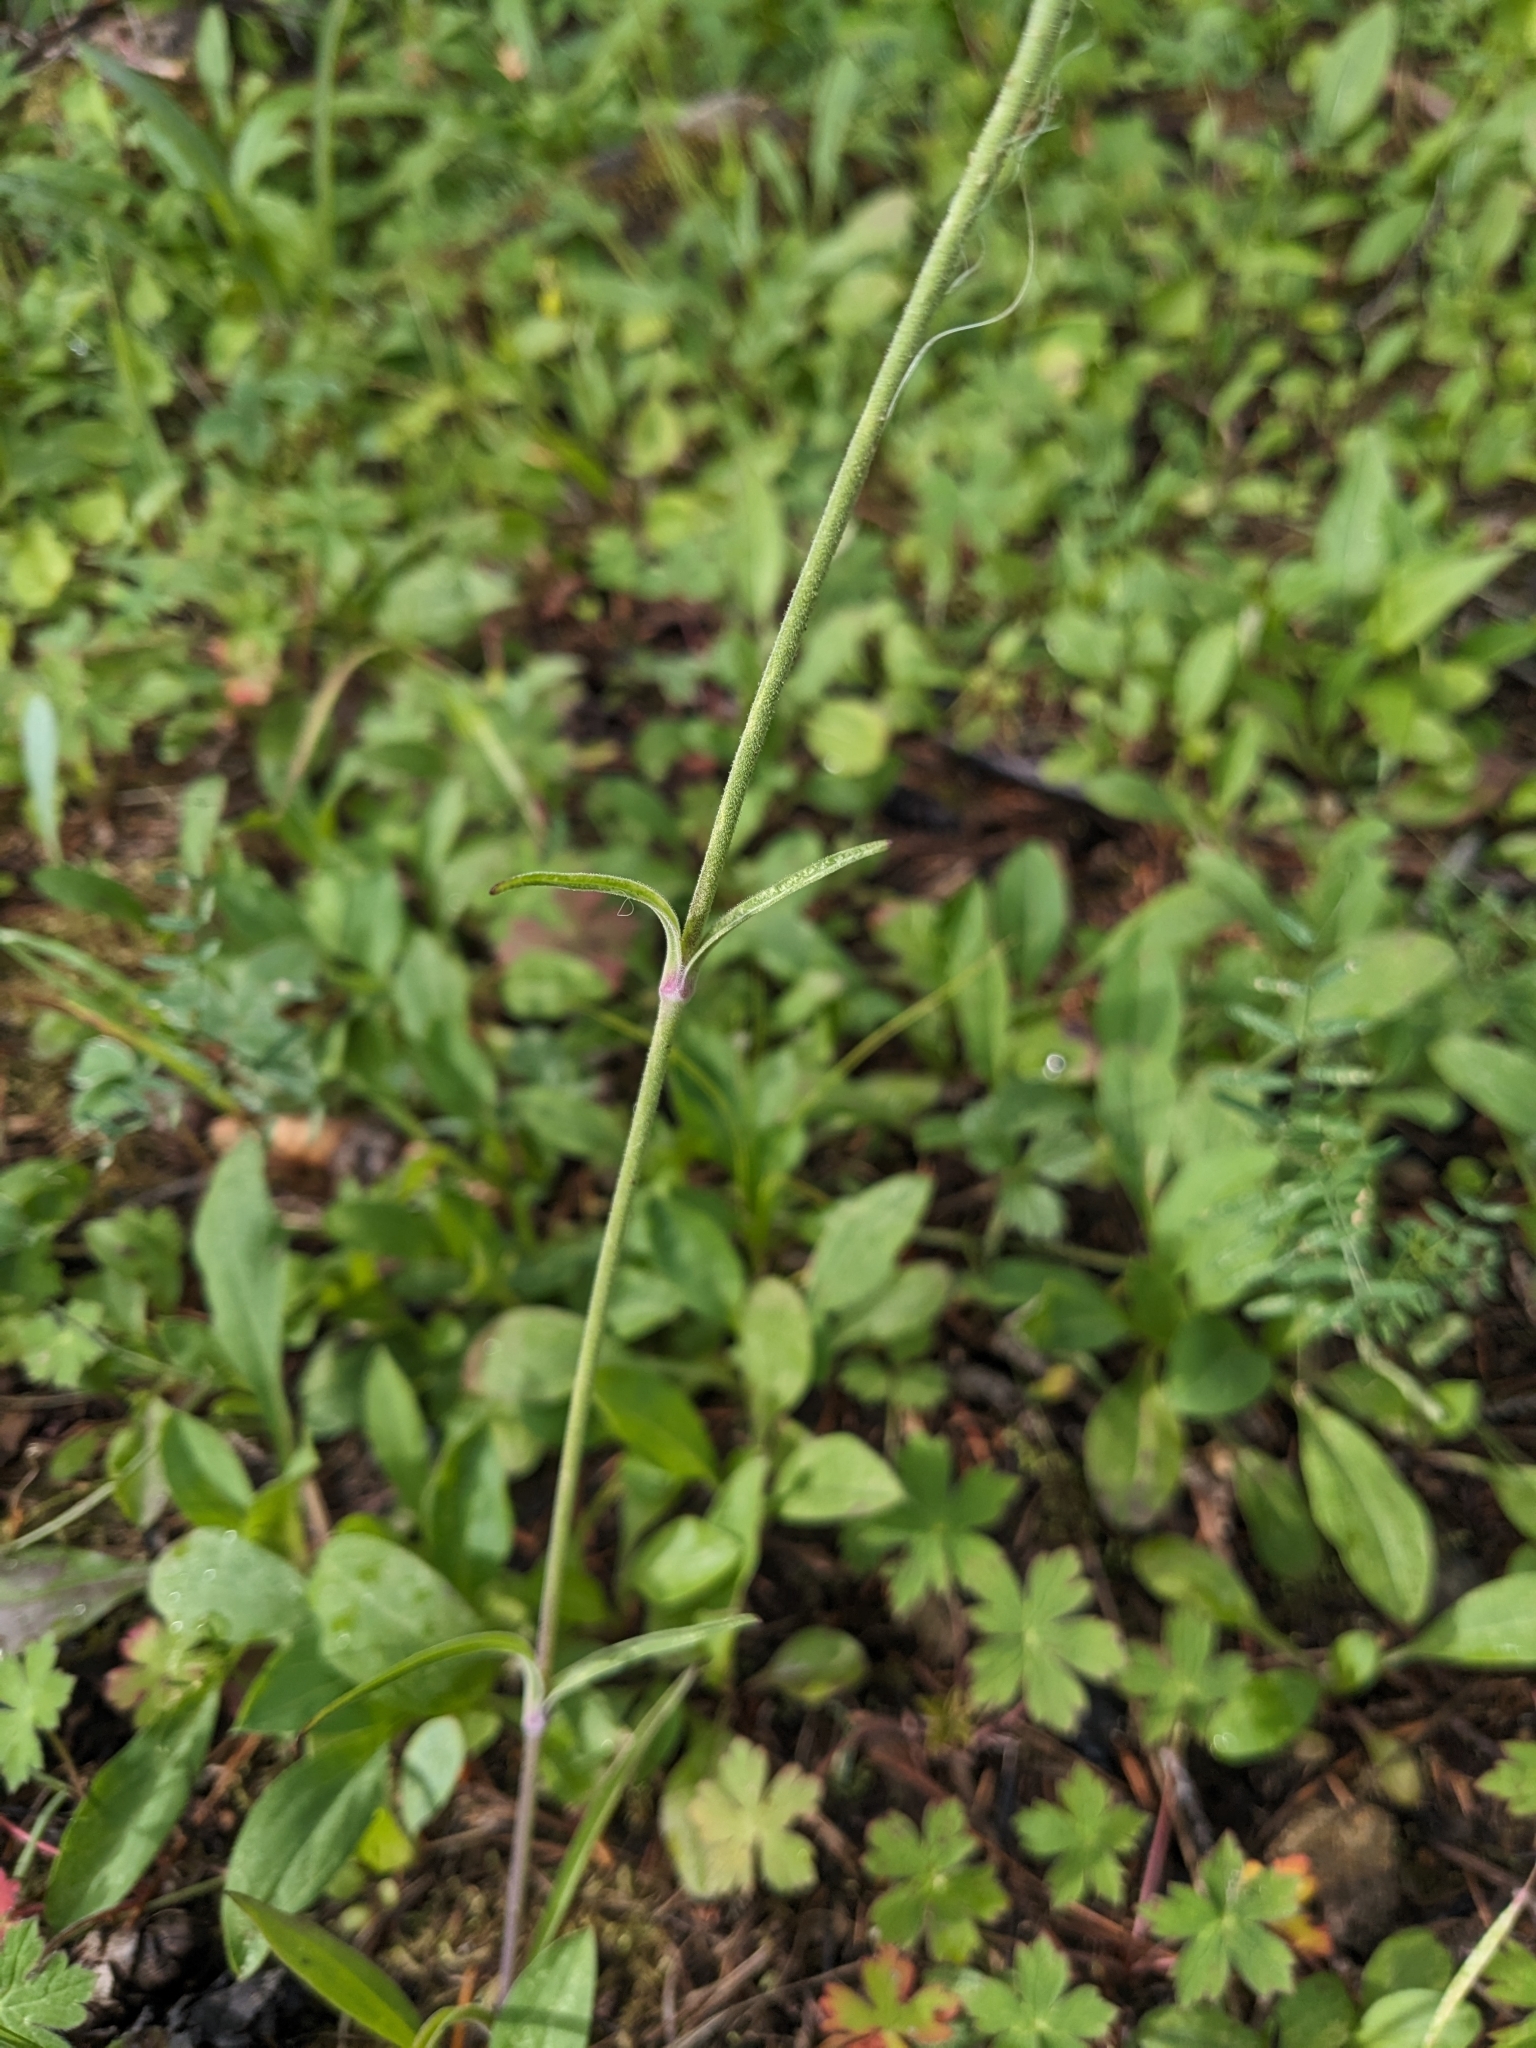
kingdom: Plantae
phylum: Tracheophyta
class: Magnoliopsida
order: Caryophyllales
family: Caryophyllaceae
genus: Silene
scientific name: Silene scouleri
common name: Scouler's campion
